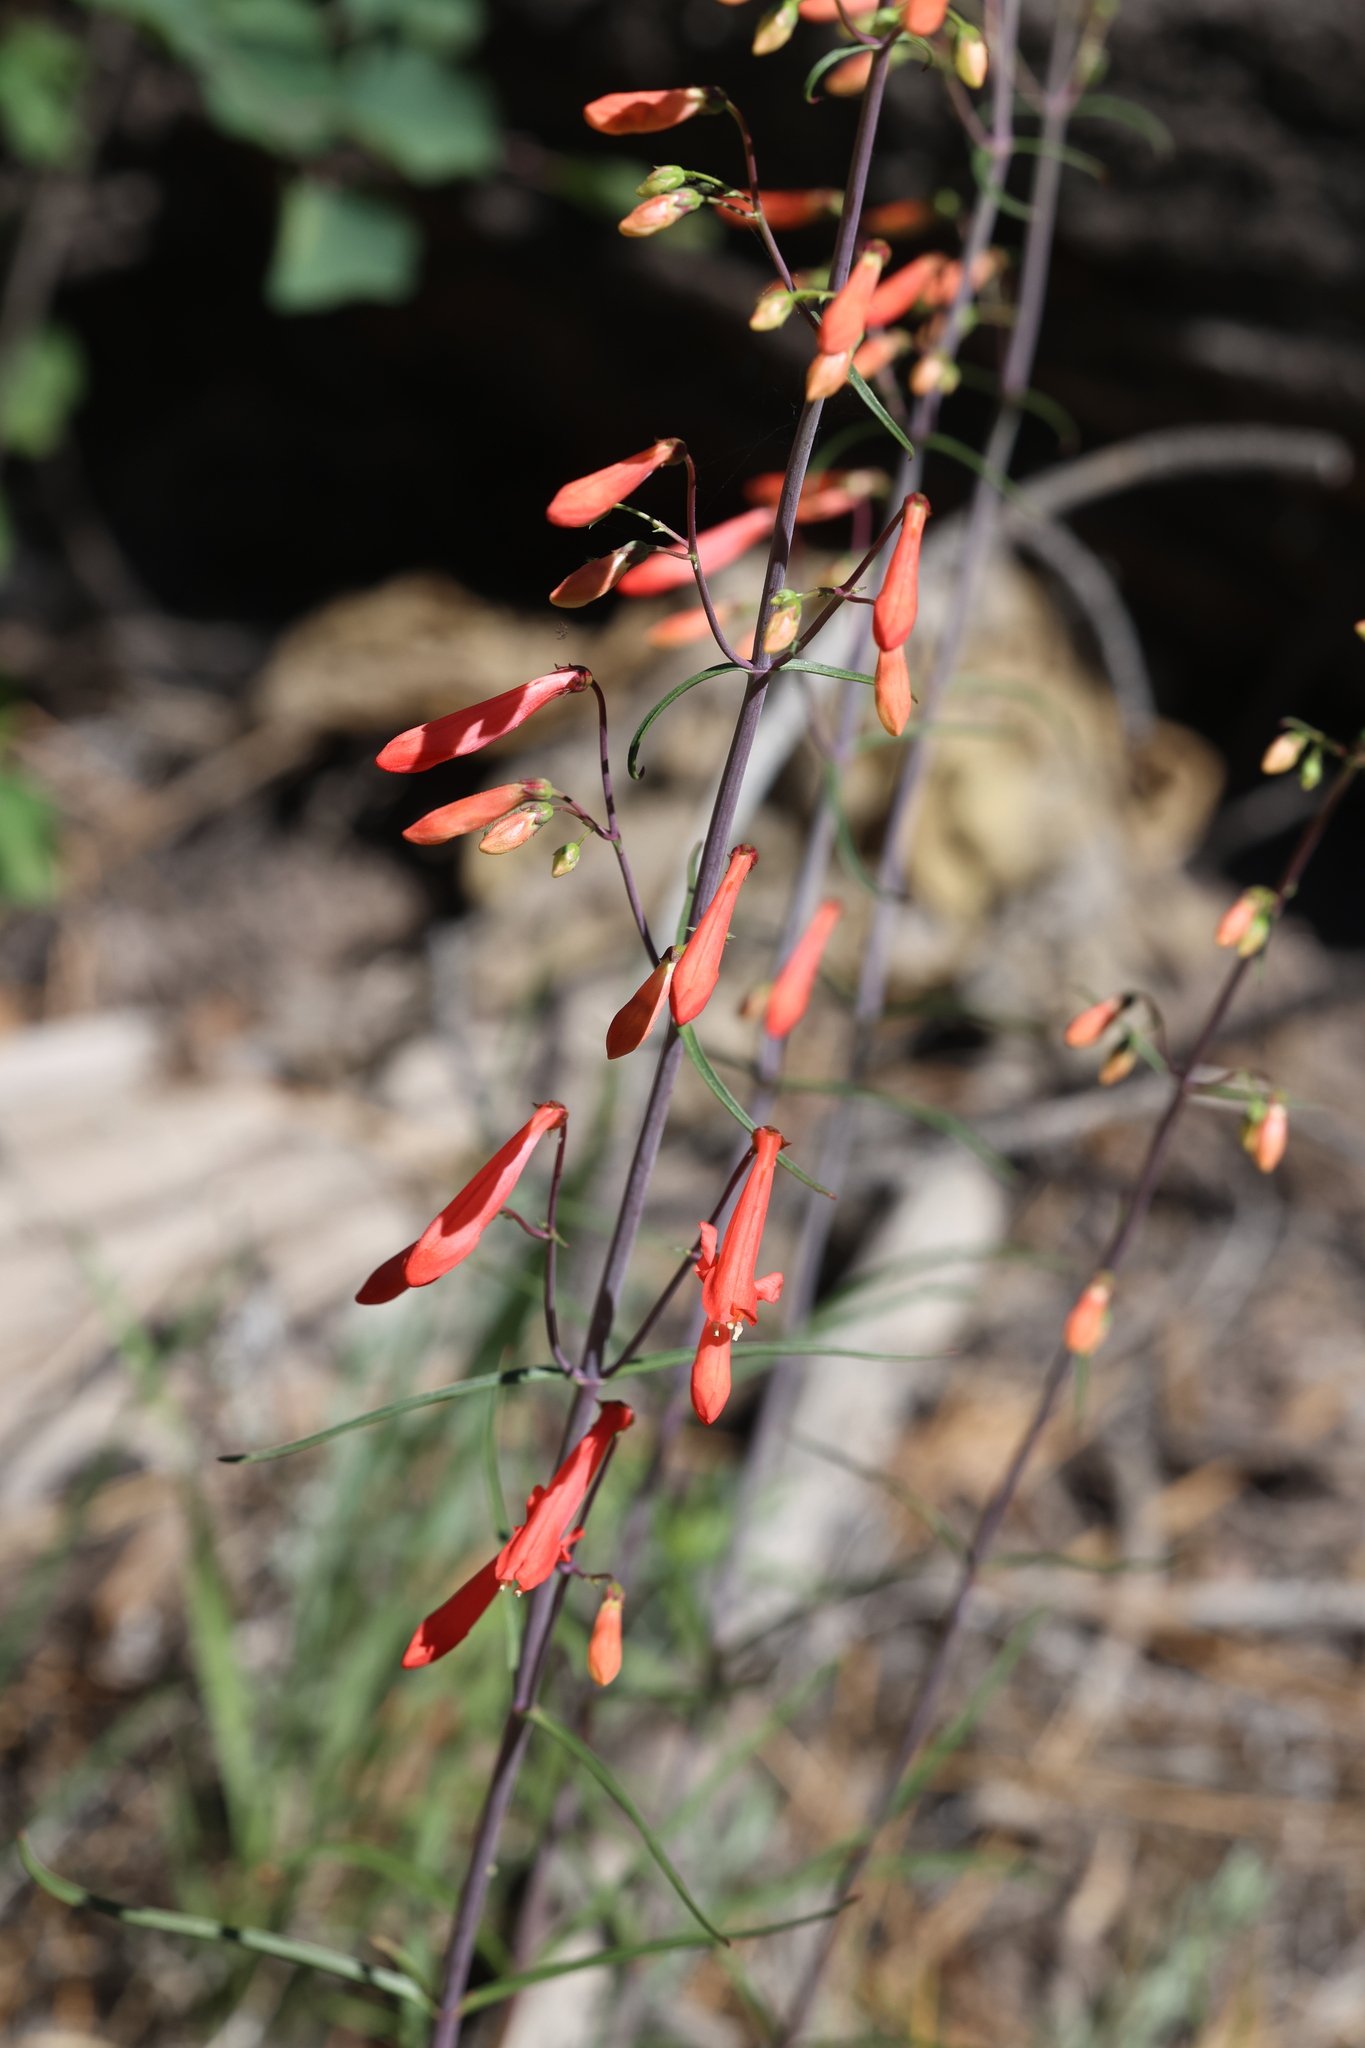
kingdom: Plantae
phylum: Tracheophyta
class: Magnoliopsida
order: Lamiales
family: Plantaginaceae
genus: Penstemon
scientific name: Penstemon barbatus
